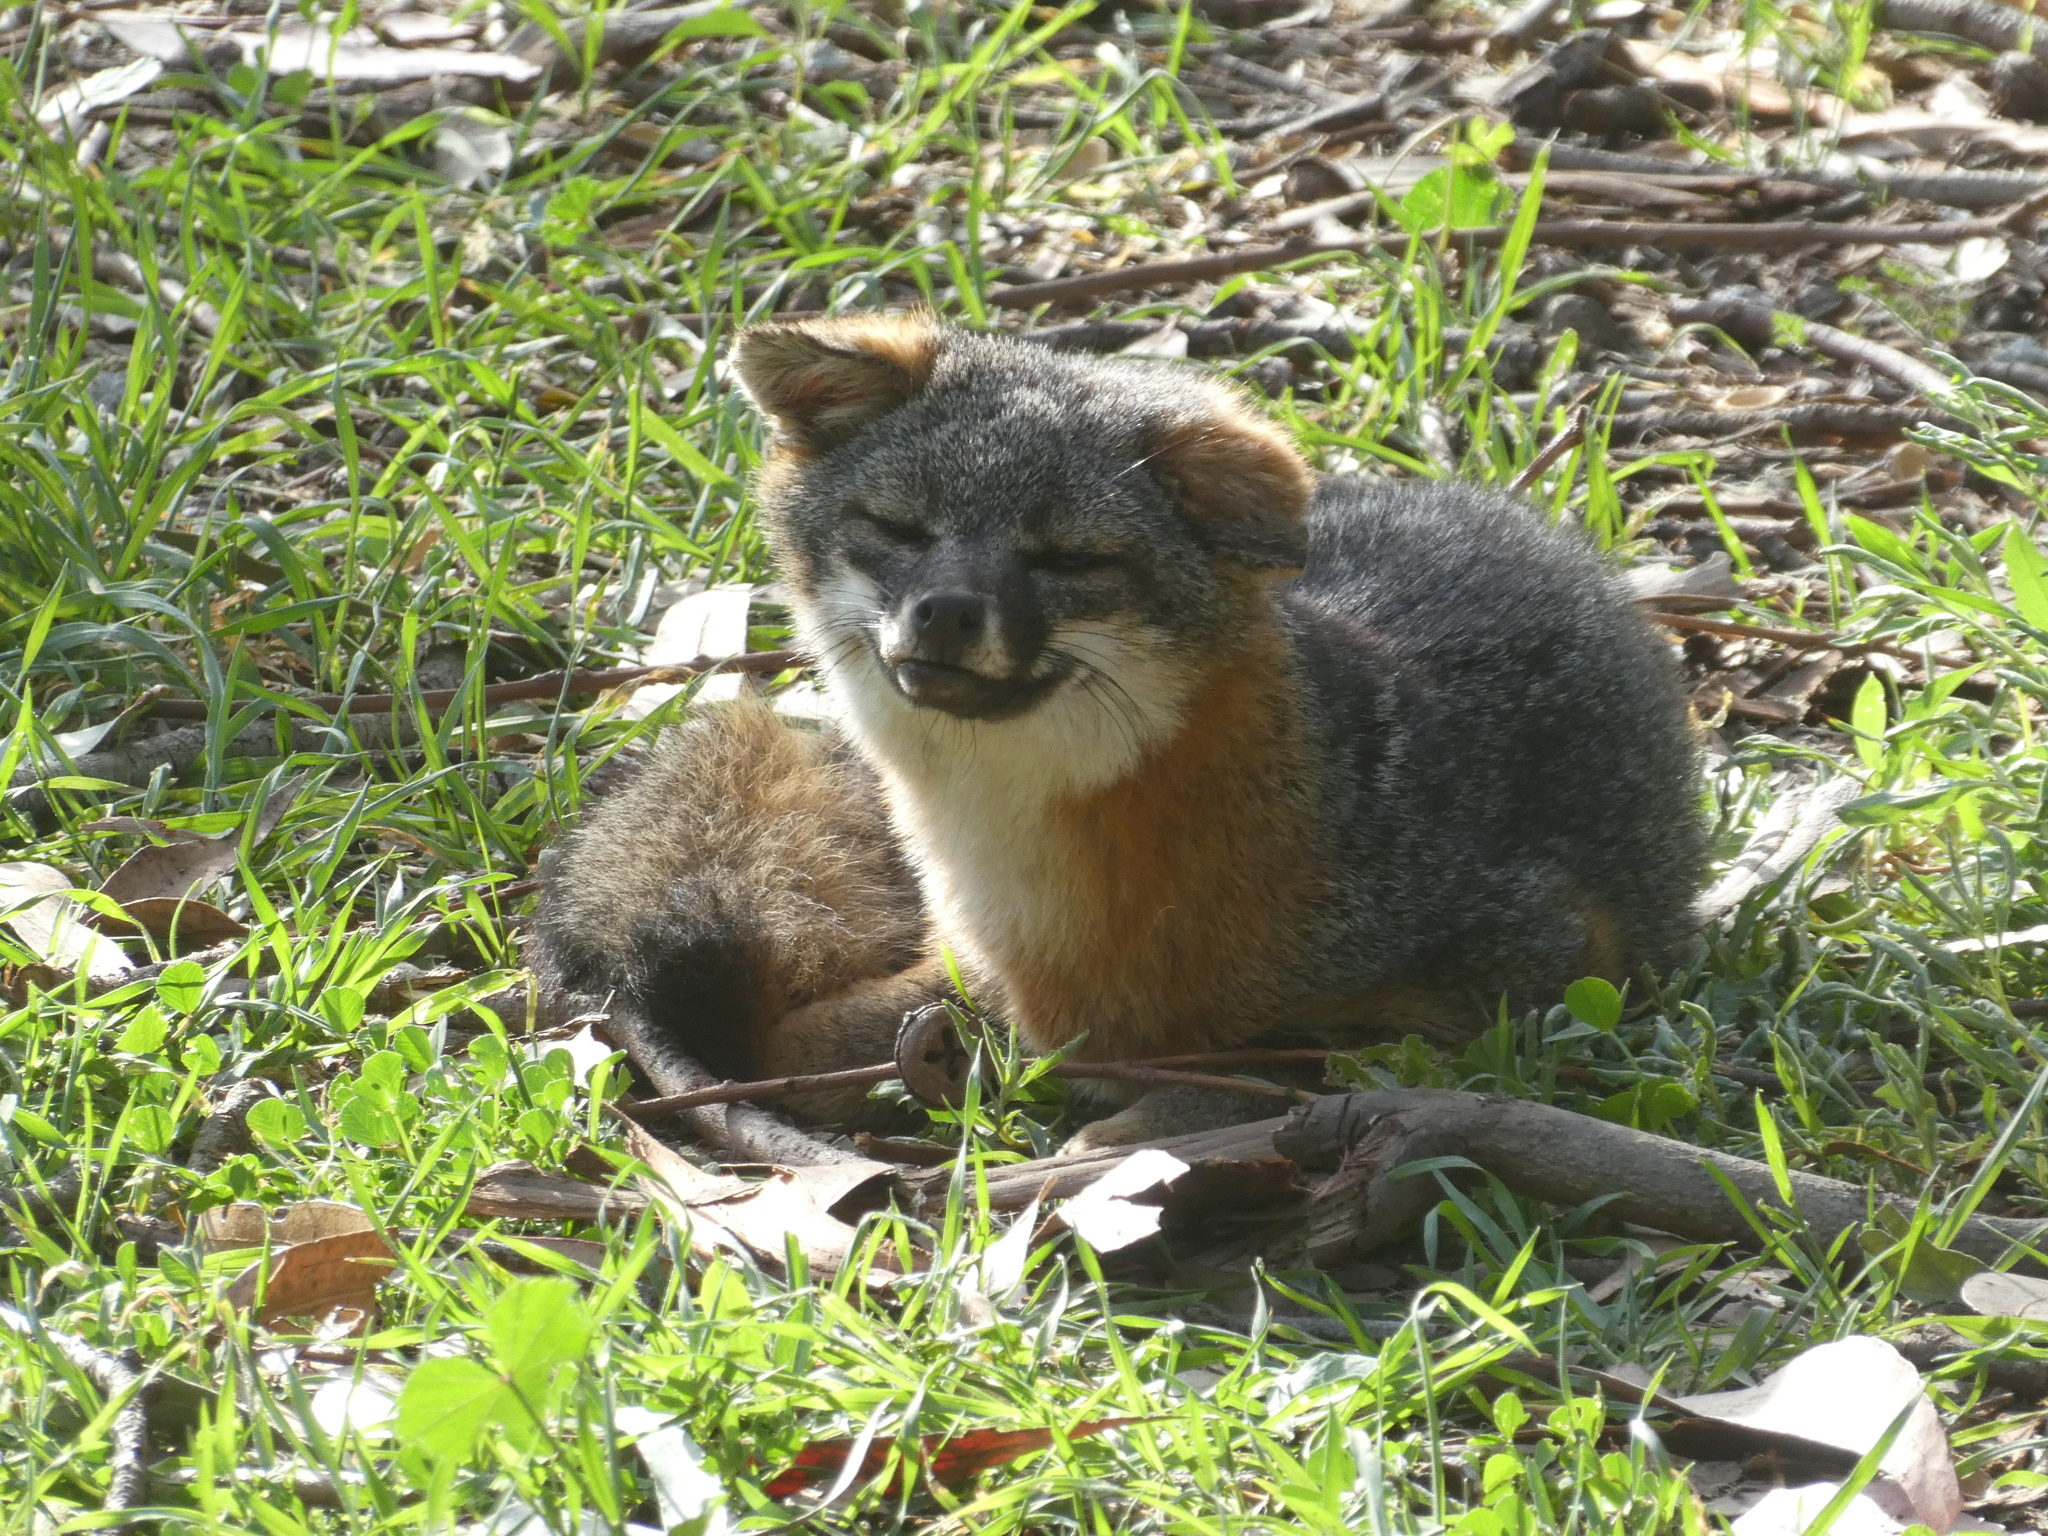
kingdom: Animalia
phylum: Chordata
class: Mammalia
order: Carnivora
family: Canidae
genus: Urocyon
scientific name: Urocyon littoralis
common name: Island gray fox
